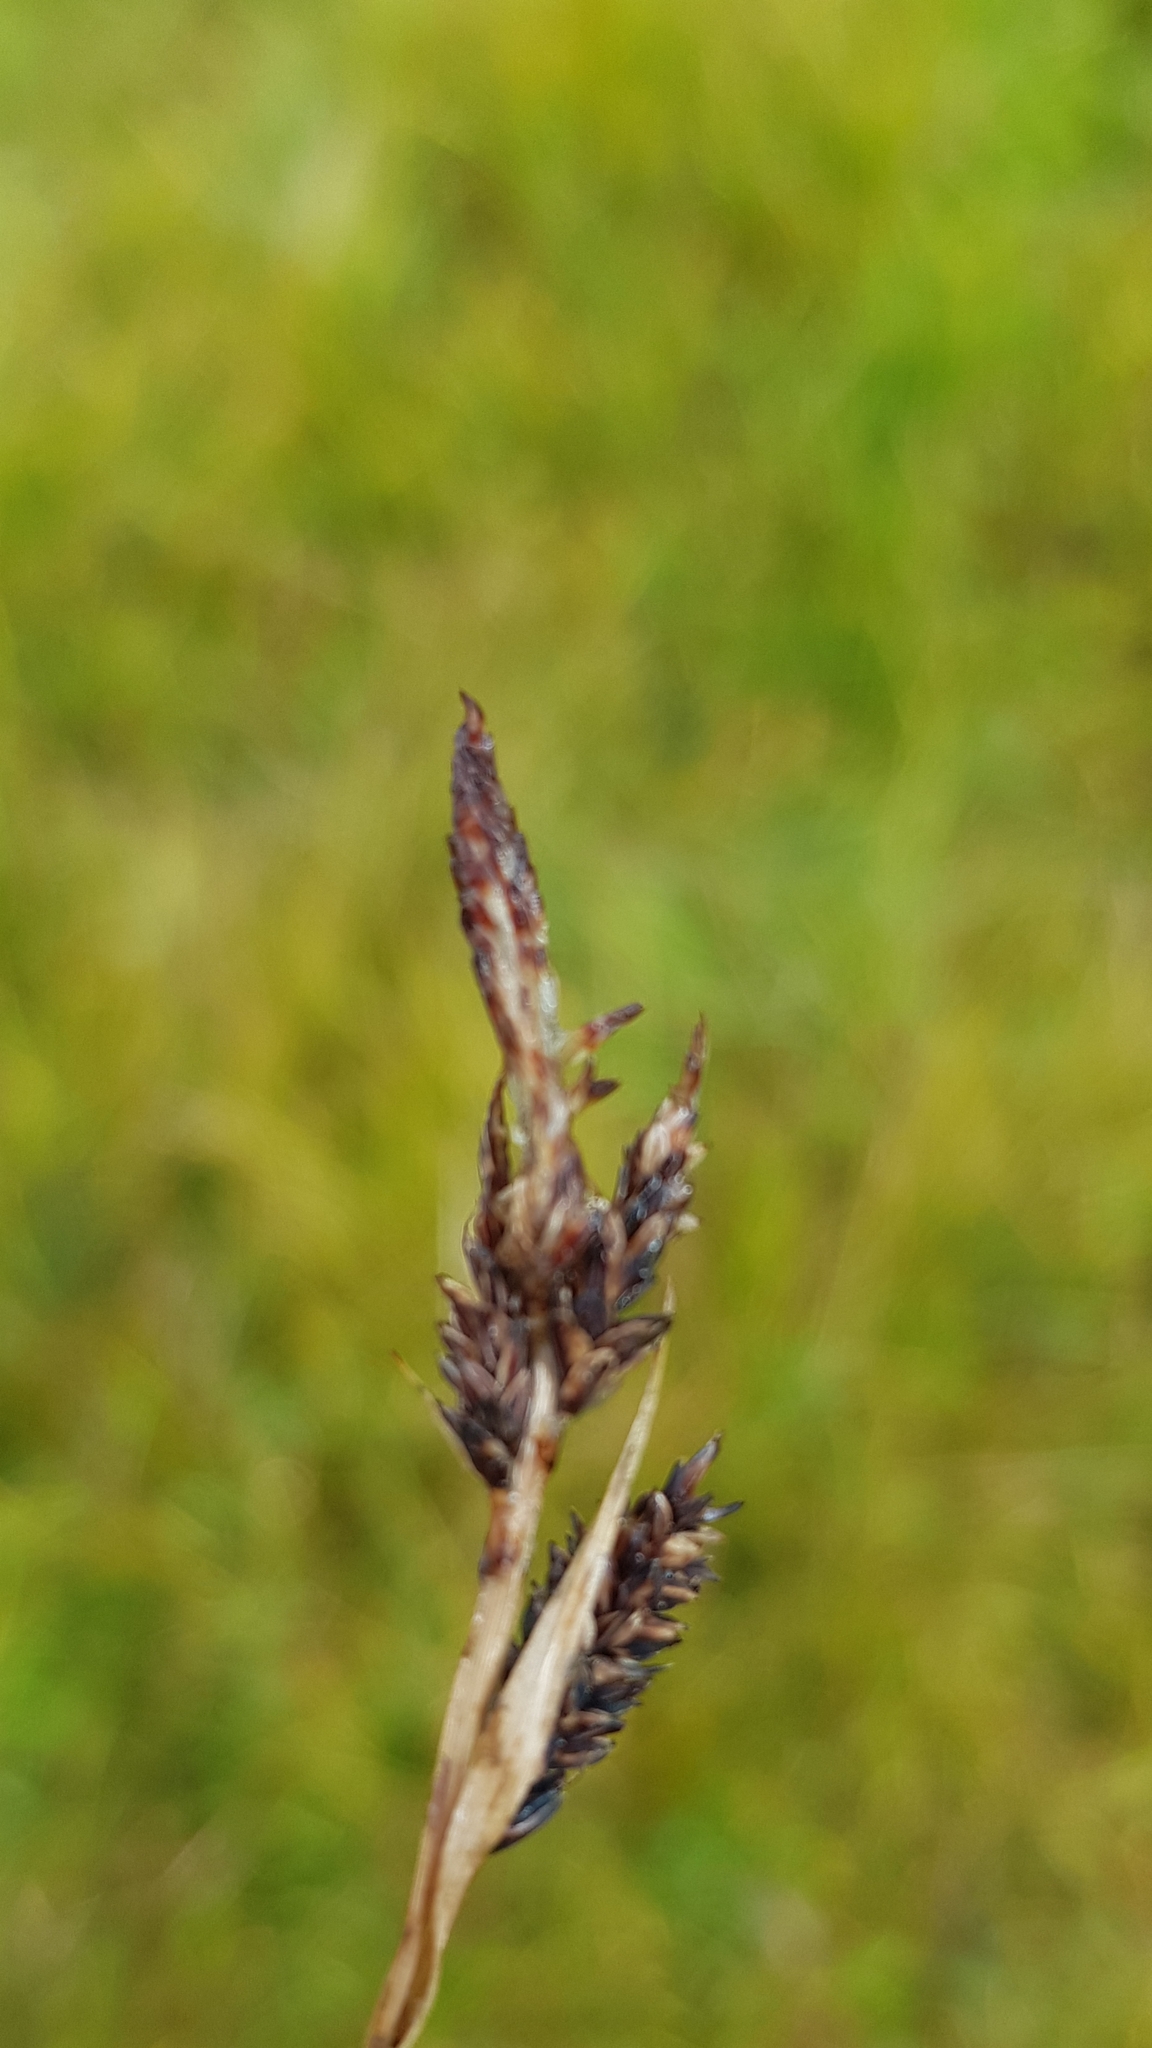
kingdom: Plantae
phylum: Tracheophyta
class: Liliopsida
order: Poales
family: Cyperaceae
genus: Carex
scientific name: Carex atherodes
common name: Wheat sedge
